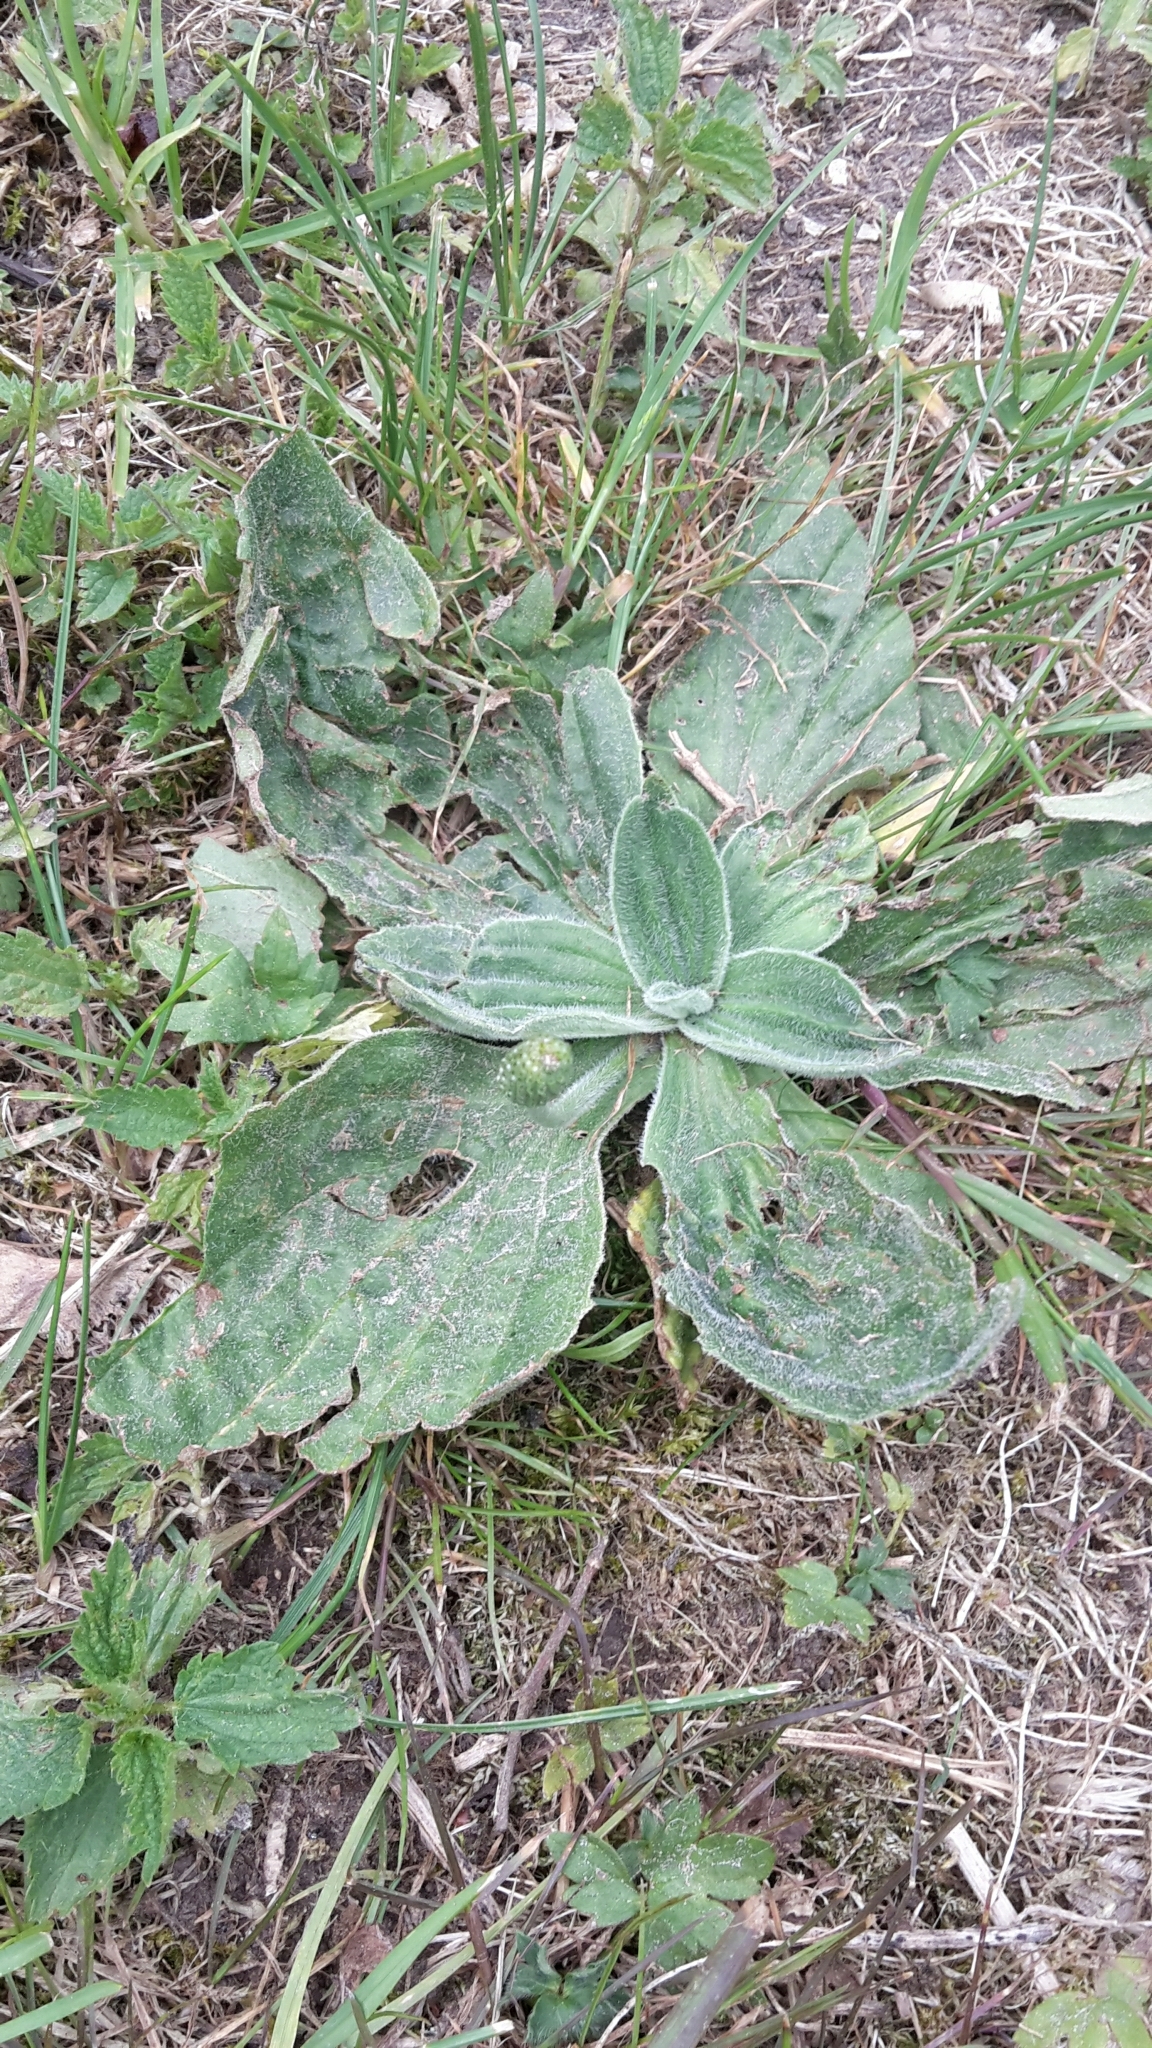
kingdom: Plantae
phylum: Tracheophyta
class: Magnoliopsida
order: Lamiales
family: Plantaginaceae
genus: Plantago
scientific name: Plantago media
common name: Hoary plantain
